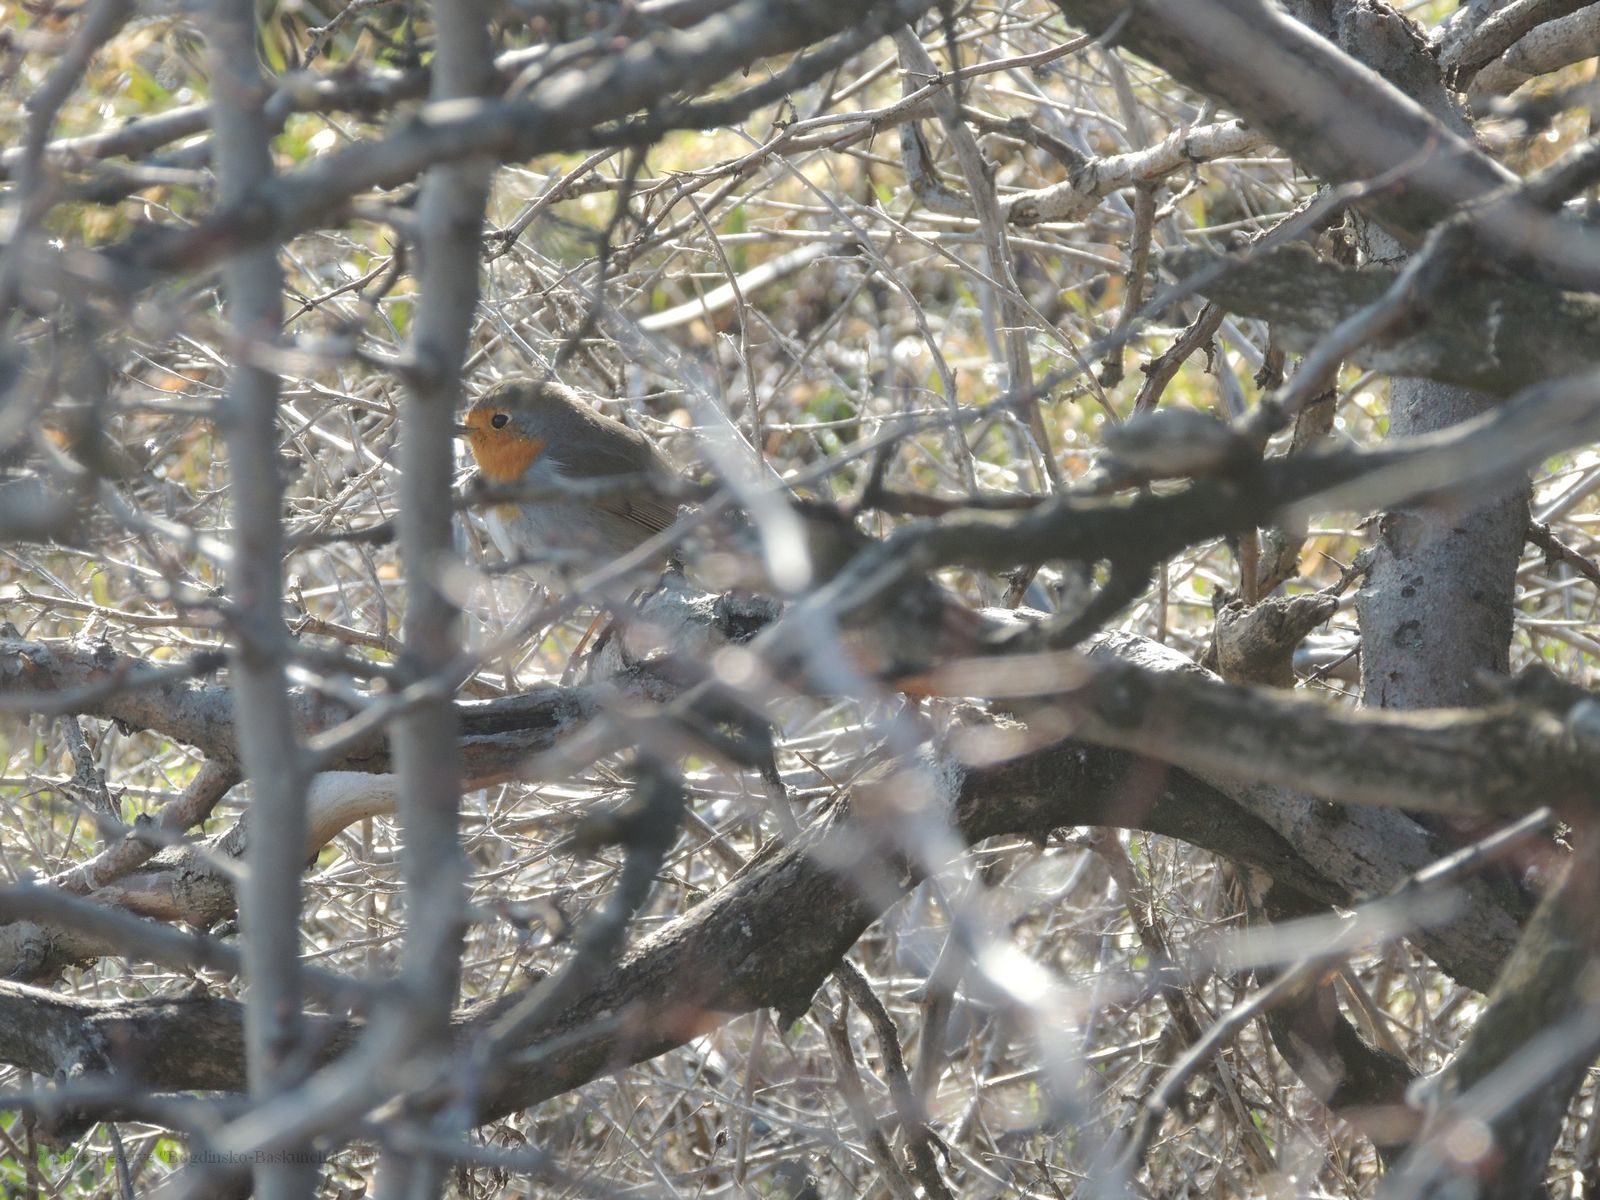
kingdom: Animalia
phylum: Chordata
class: Aves
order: Passeriformes
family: Muscicapidae
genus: Erithacus
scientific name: Erithacus rubecula
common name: European robin
